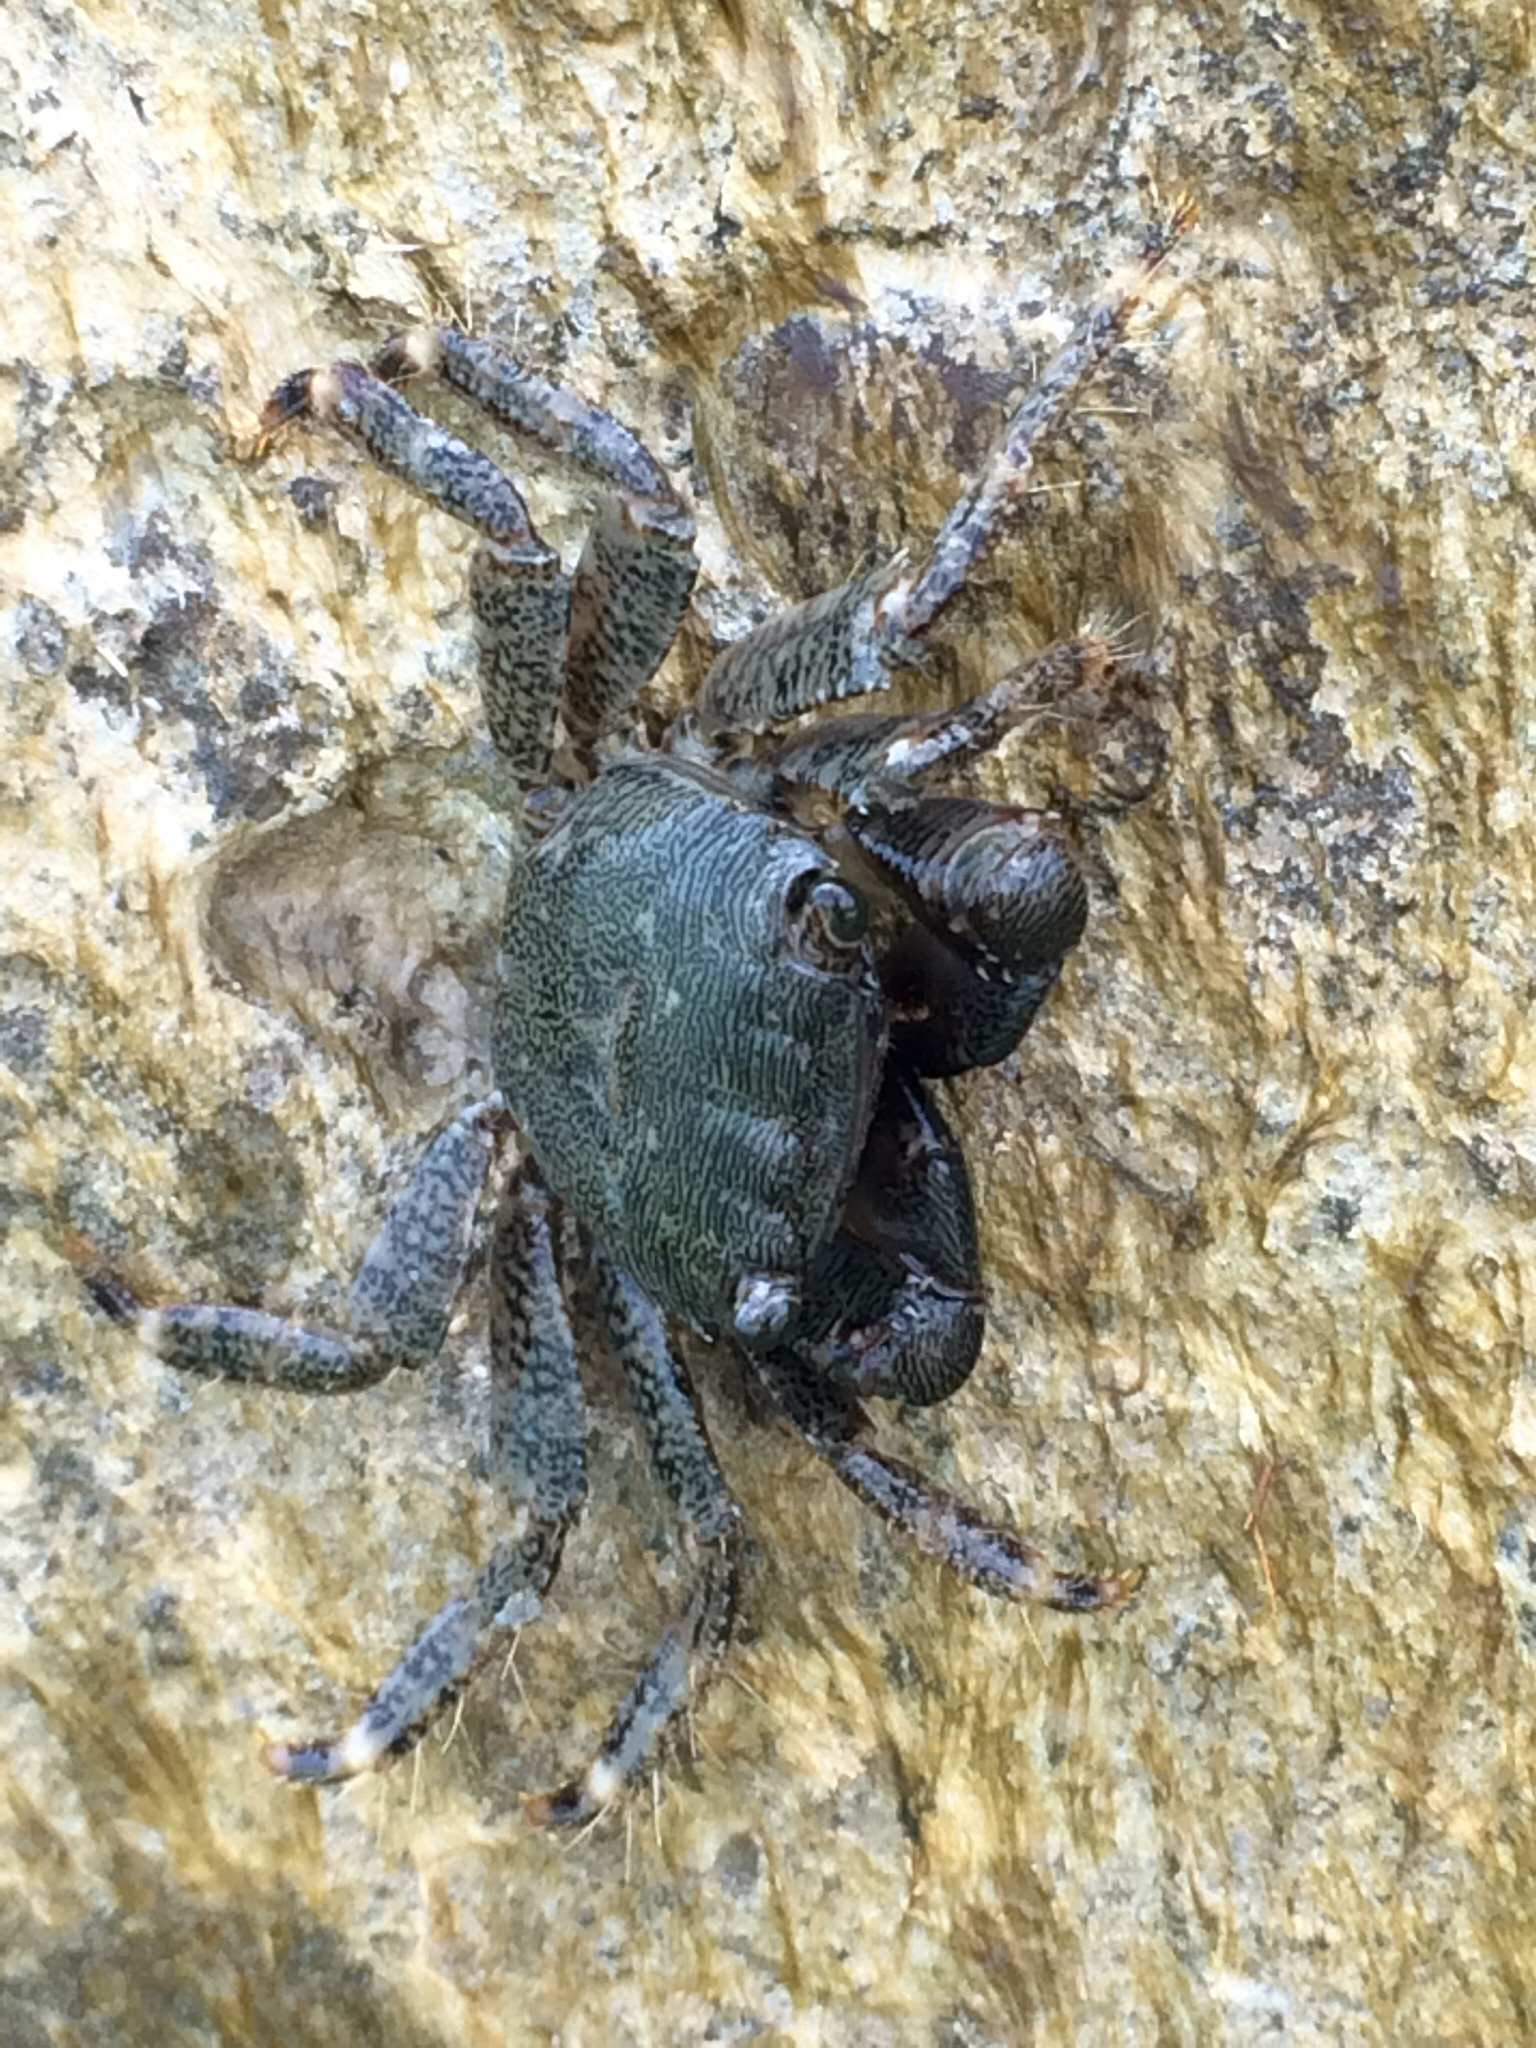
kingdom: Animalia
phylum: Arthropoda
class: Malacostraca
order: Decapoda
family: Grapsidae
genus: Pachygrapsus
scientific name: Pachygrapsus marmoratus
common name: Marbled rock crab
